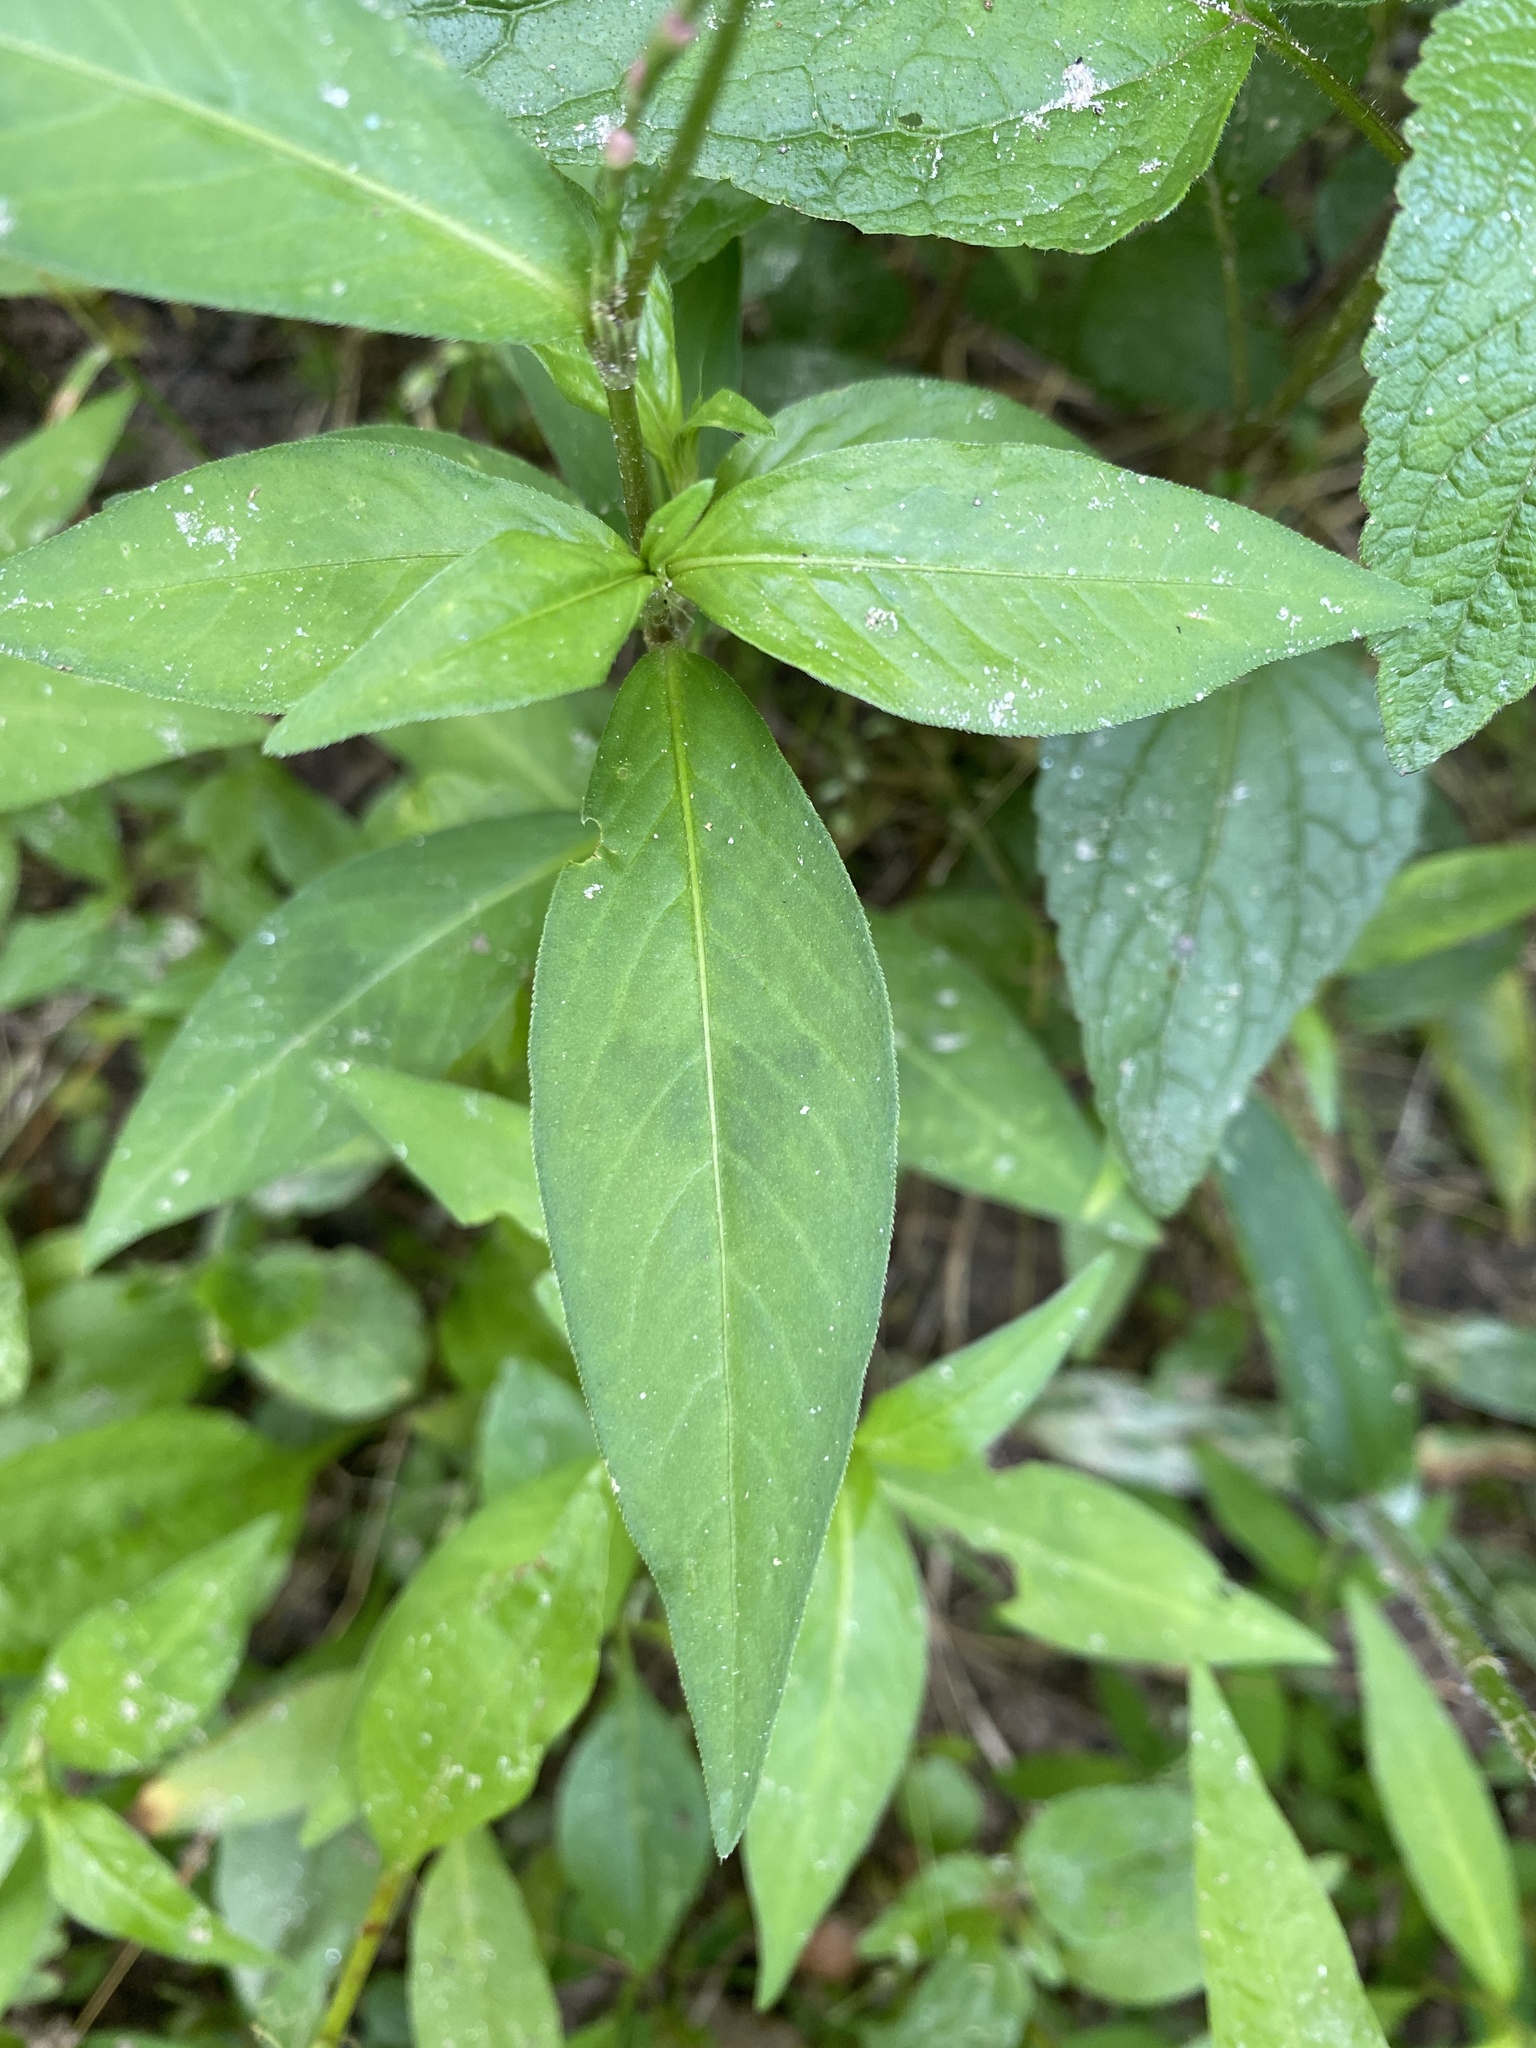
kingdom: Plantae
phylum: Tracheophyta
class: Magnoliopsida
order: Caryophyllales
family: Polygonaceae
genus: Persicaria
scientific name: Persicaria longiseta
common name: Bristly lady's-thumb
